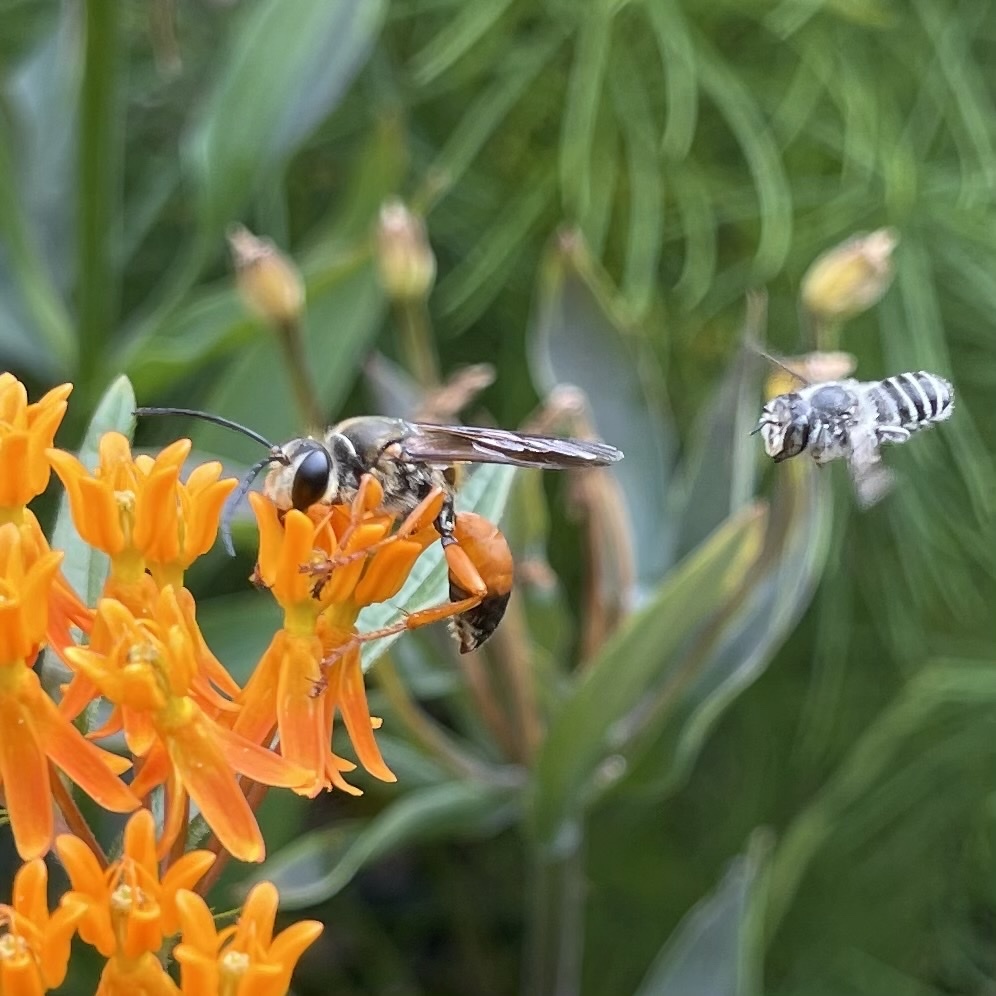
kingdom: Animalia
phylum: Arthropoda
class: Insecta
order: Hymenoptera
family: Sphecidae
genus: Sphex
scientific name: Sphex ichneumoneus
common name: Great golden digger wasp
